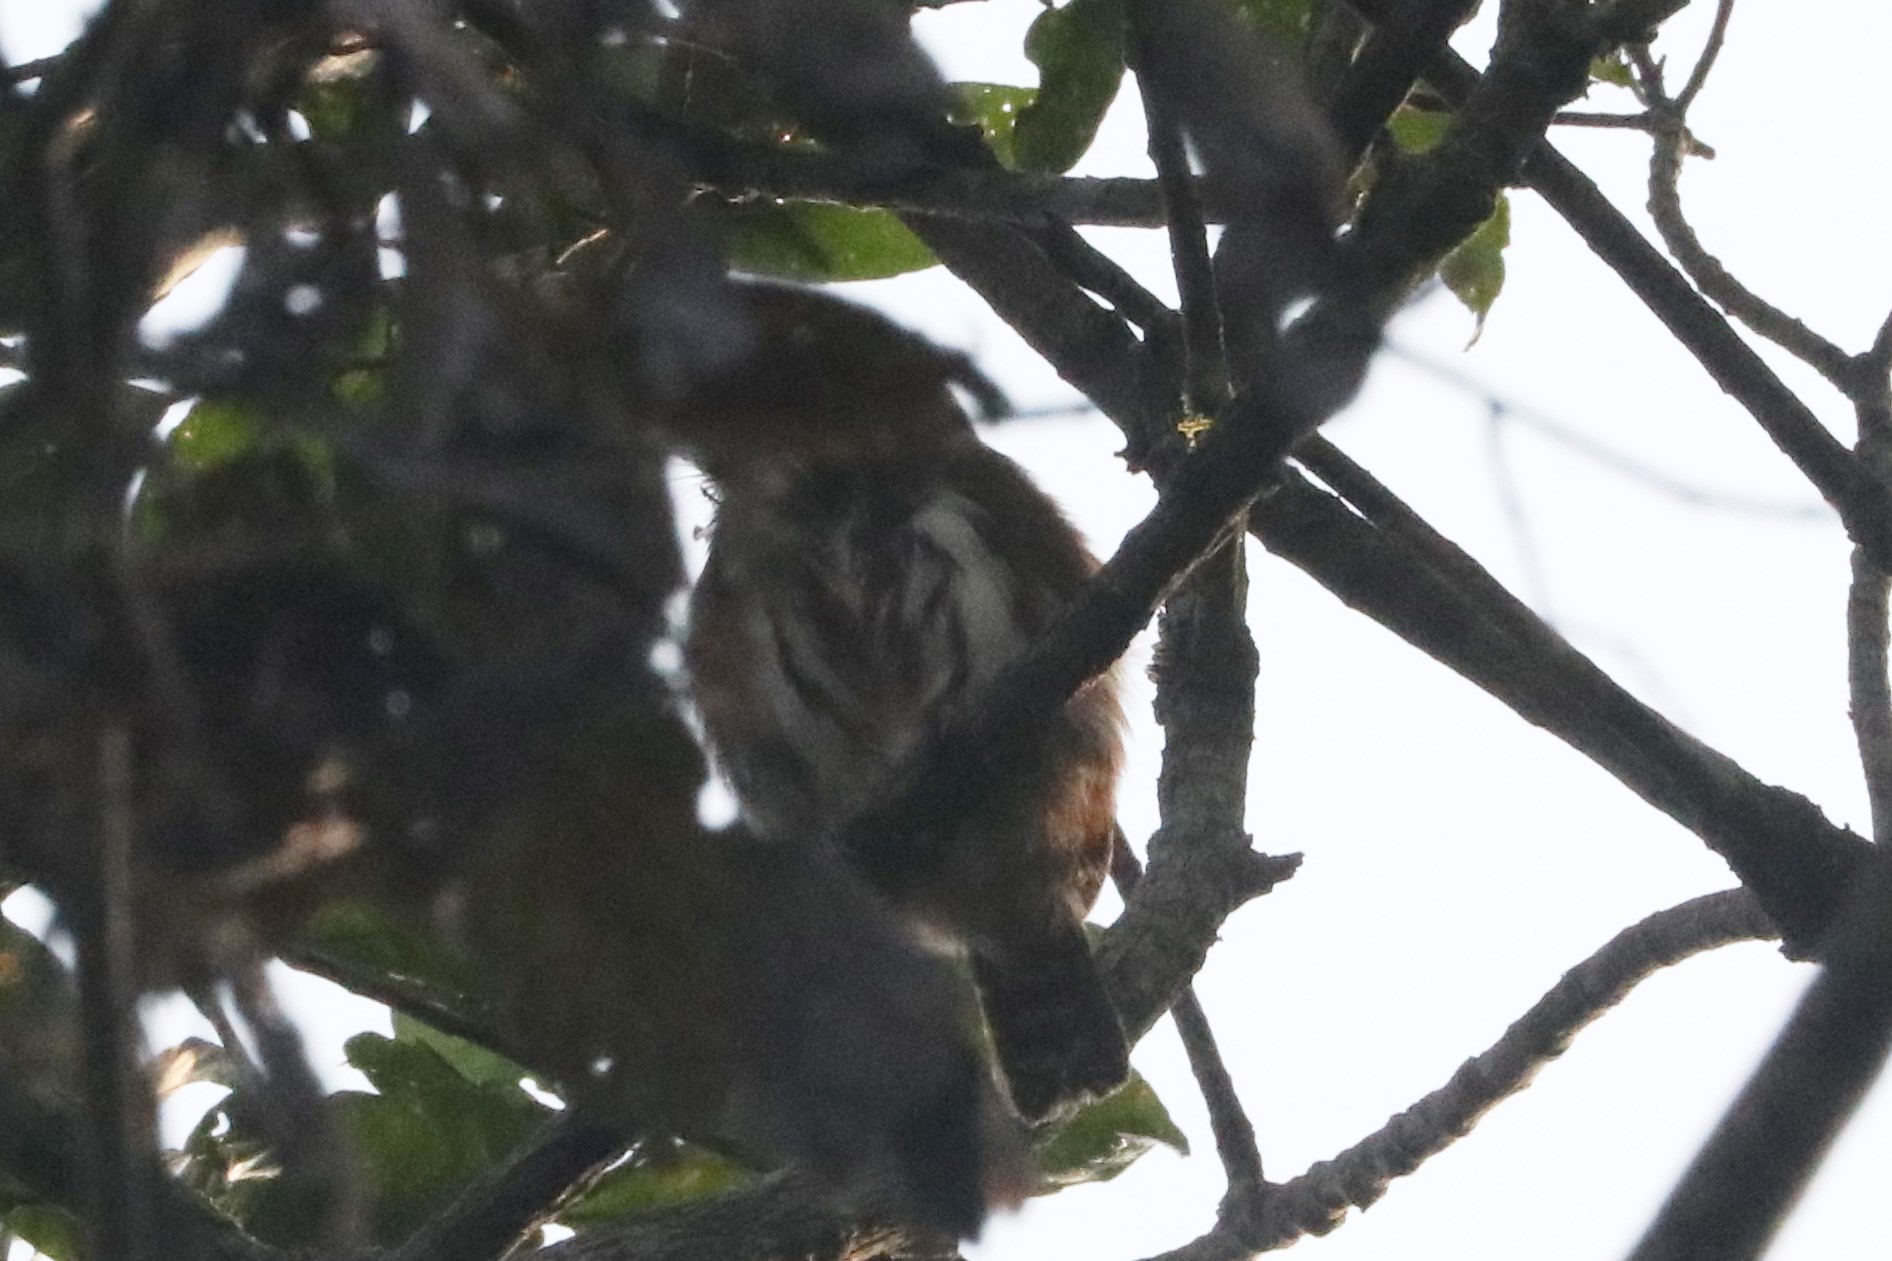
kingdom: Animalia
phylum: Chordata
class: Aves
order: Strigiformes
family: Strigidae
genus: Glaucidium
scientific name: Glaucidium brasilianum
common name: Ferruginous pygmy-owl
